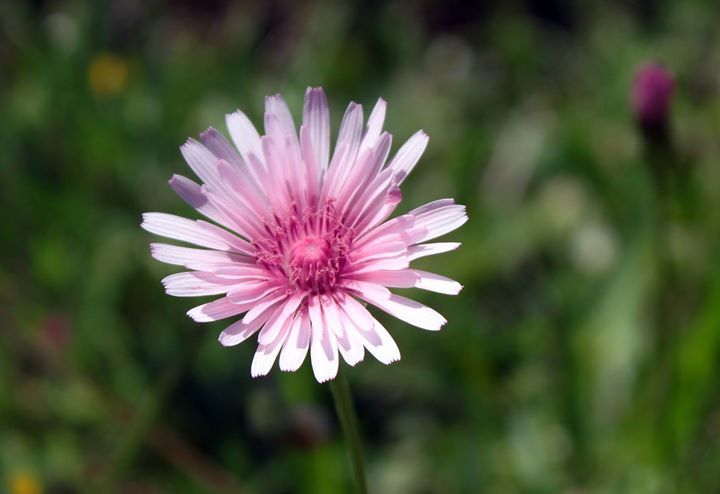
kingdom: Plantae
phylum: Tracheophyta
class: Magnoliopsida
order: Asterales
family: Asteraceae
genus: Crepis
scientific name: Crepis rubra
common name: Pink hawk's-beard
